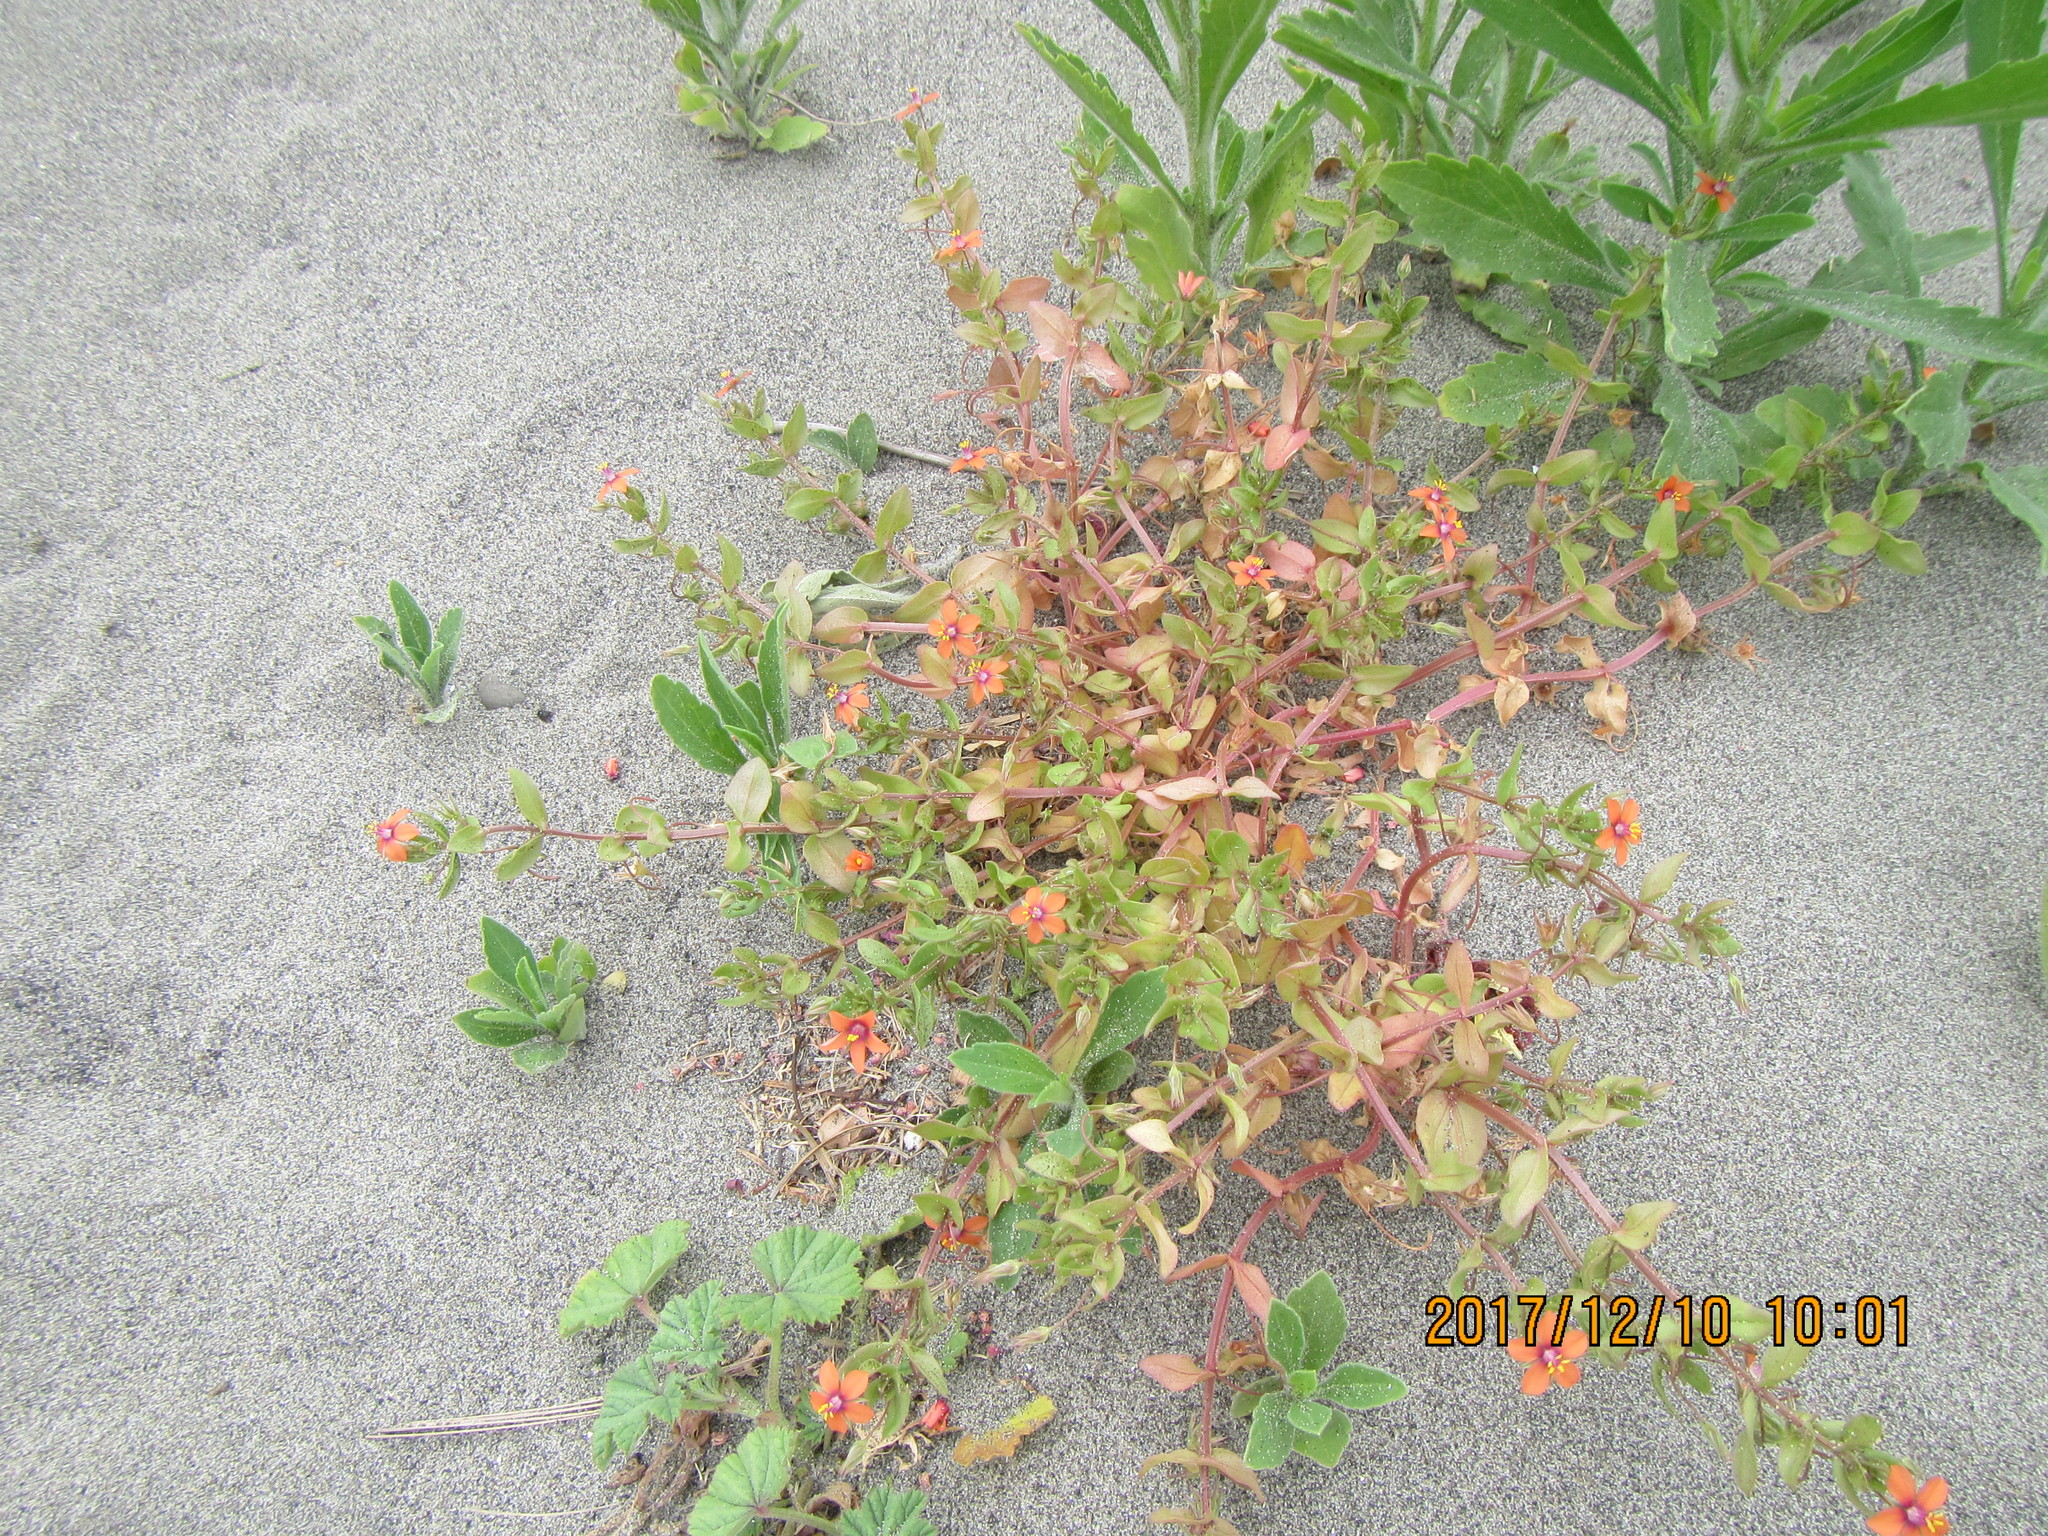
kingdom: Plantae
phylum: Tracheophyta
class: Magnoliopsida
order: Ericales
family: Primulaceae
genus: Lysimachia
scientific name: Lysimachia arvensis
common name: Scarlet pimpernel
